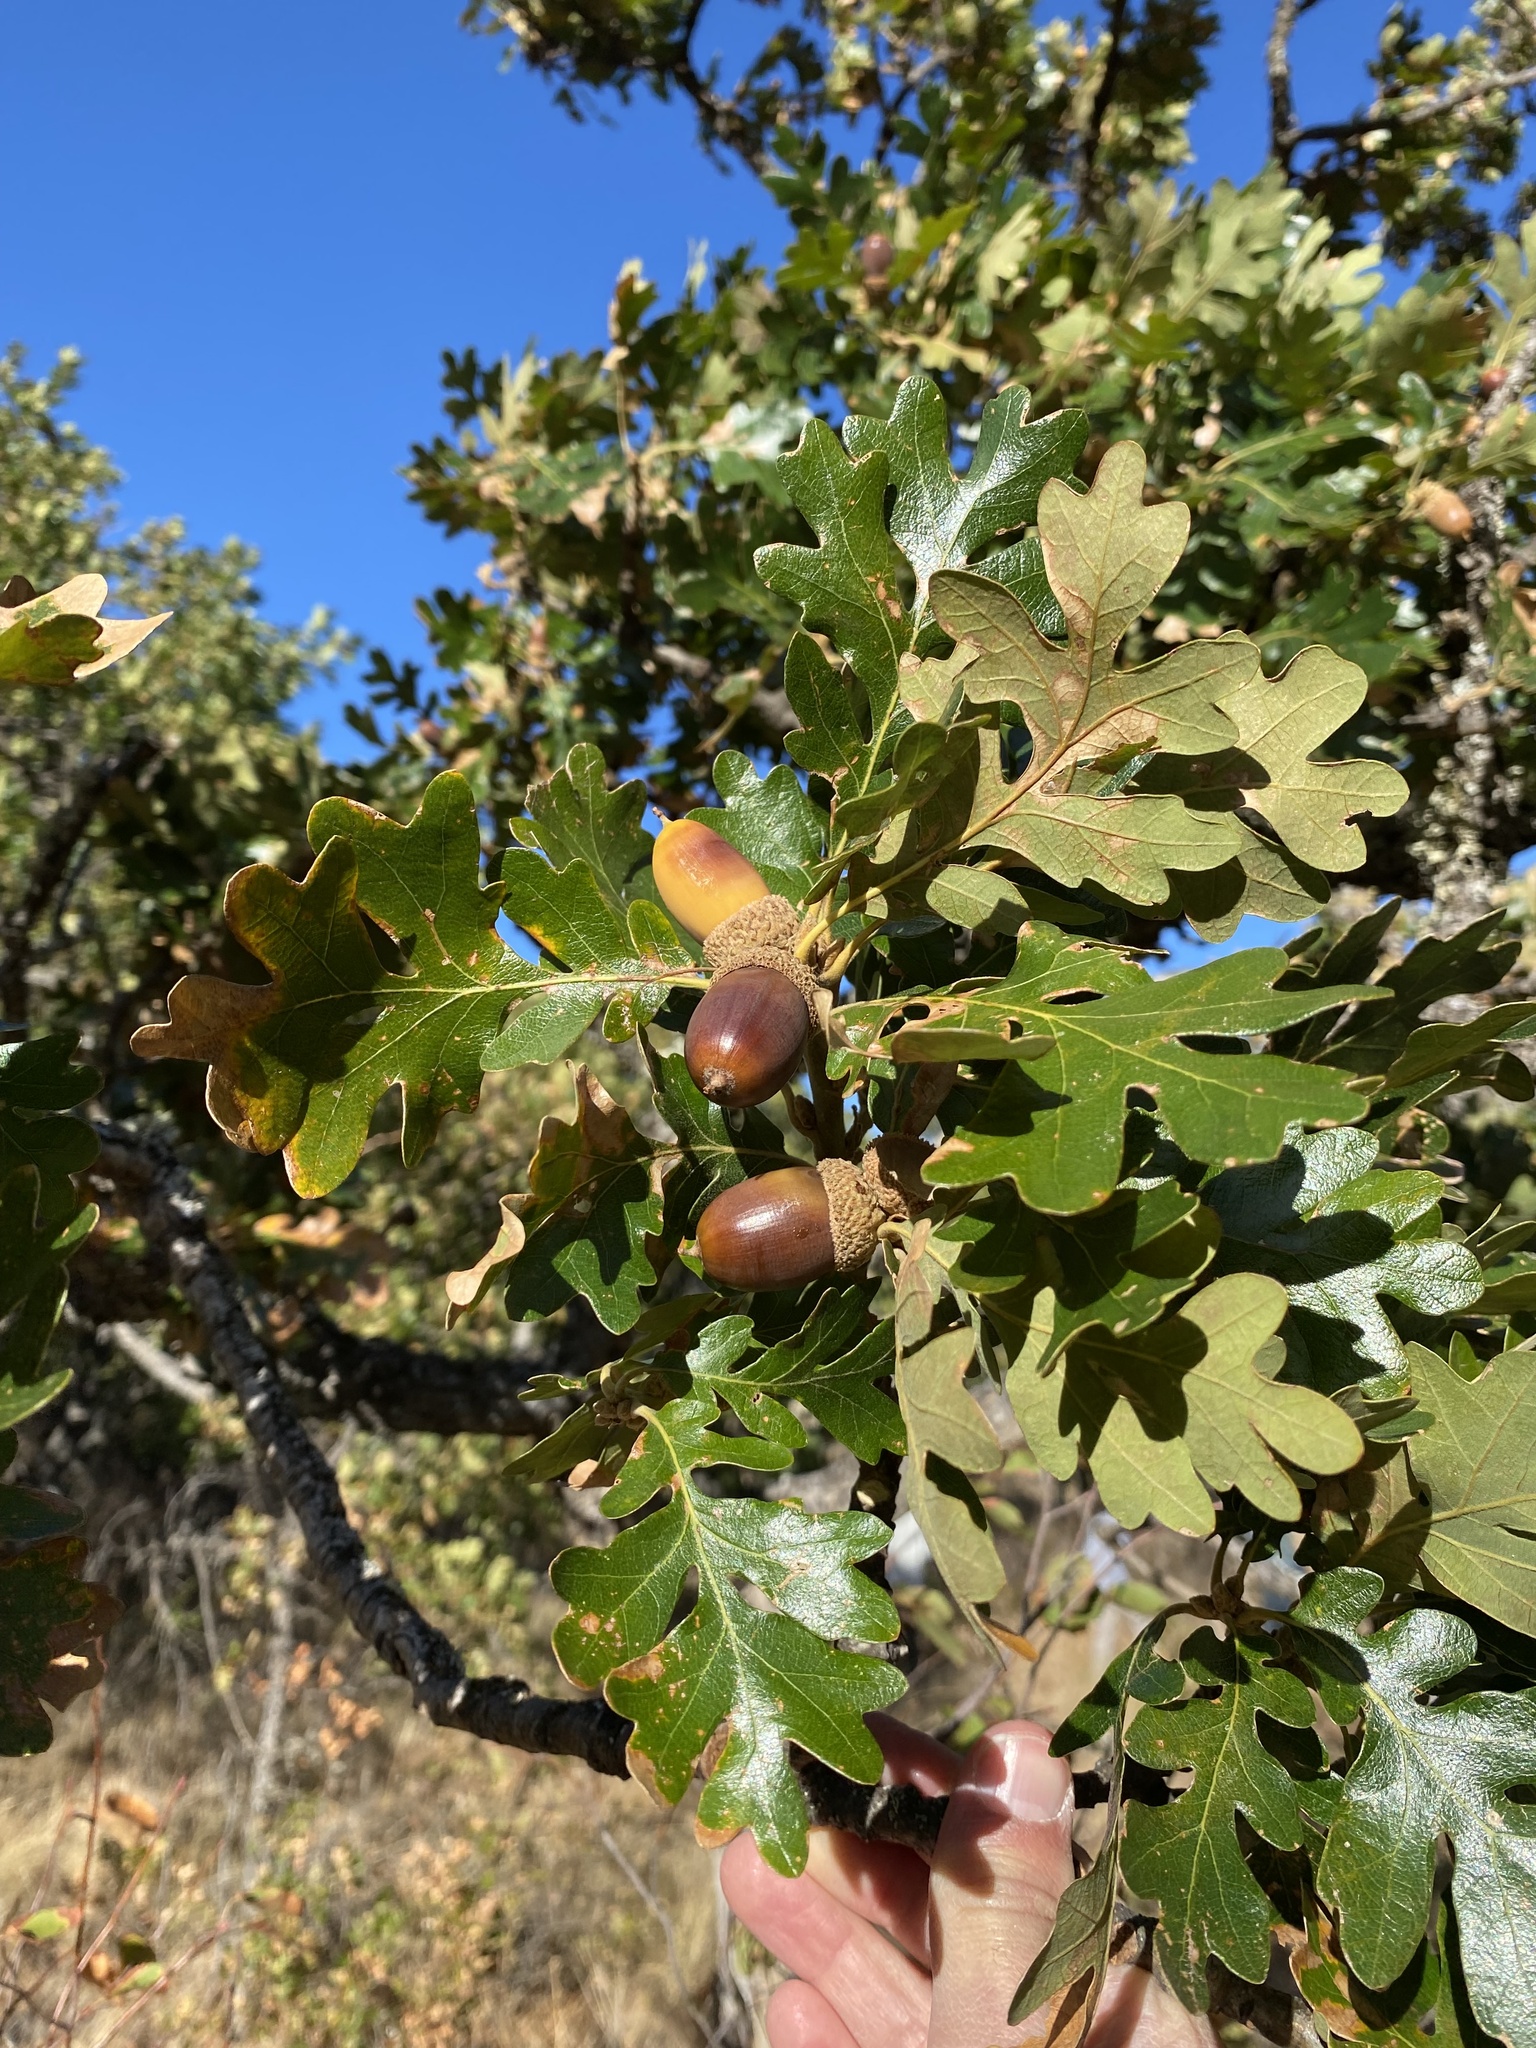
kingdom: Plantae
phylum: Tracheophyta
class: Magnoliopsida
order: Fagales
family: Fagaceae
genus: Quercus
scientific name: Quercus garryana
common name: Garry oak
